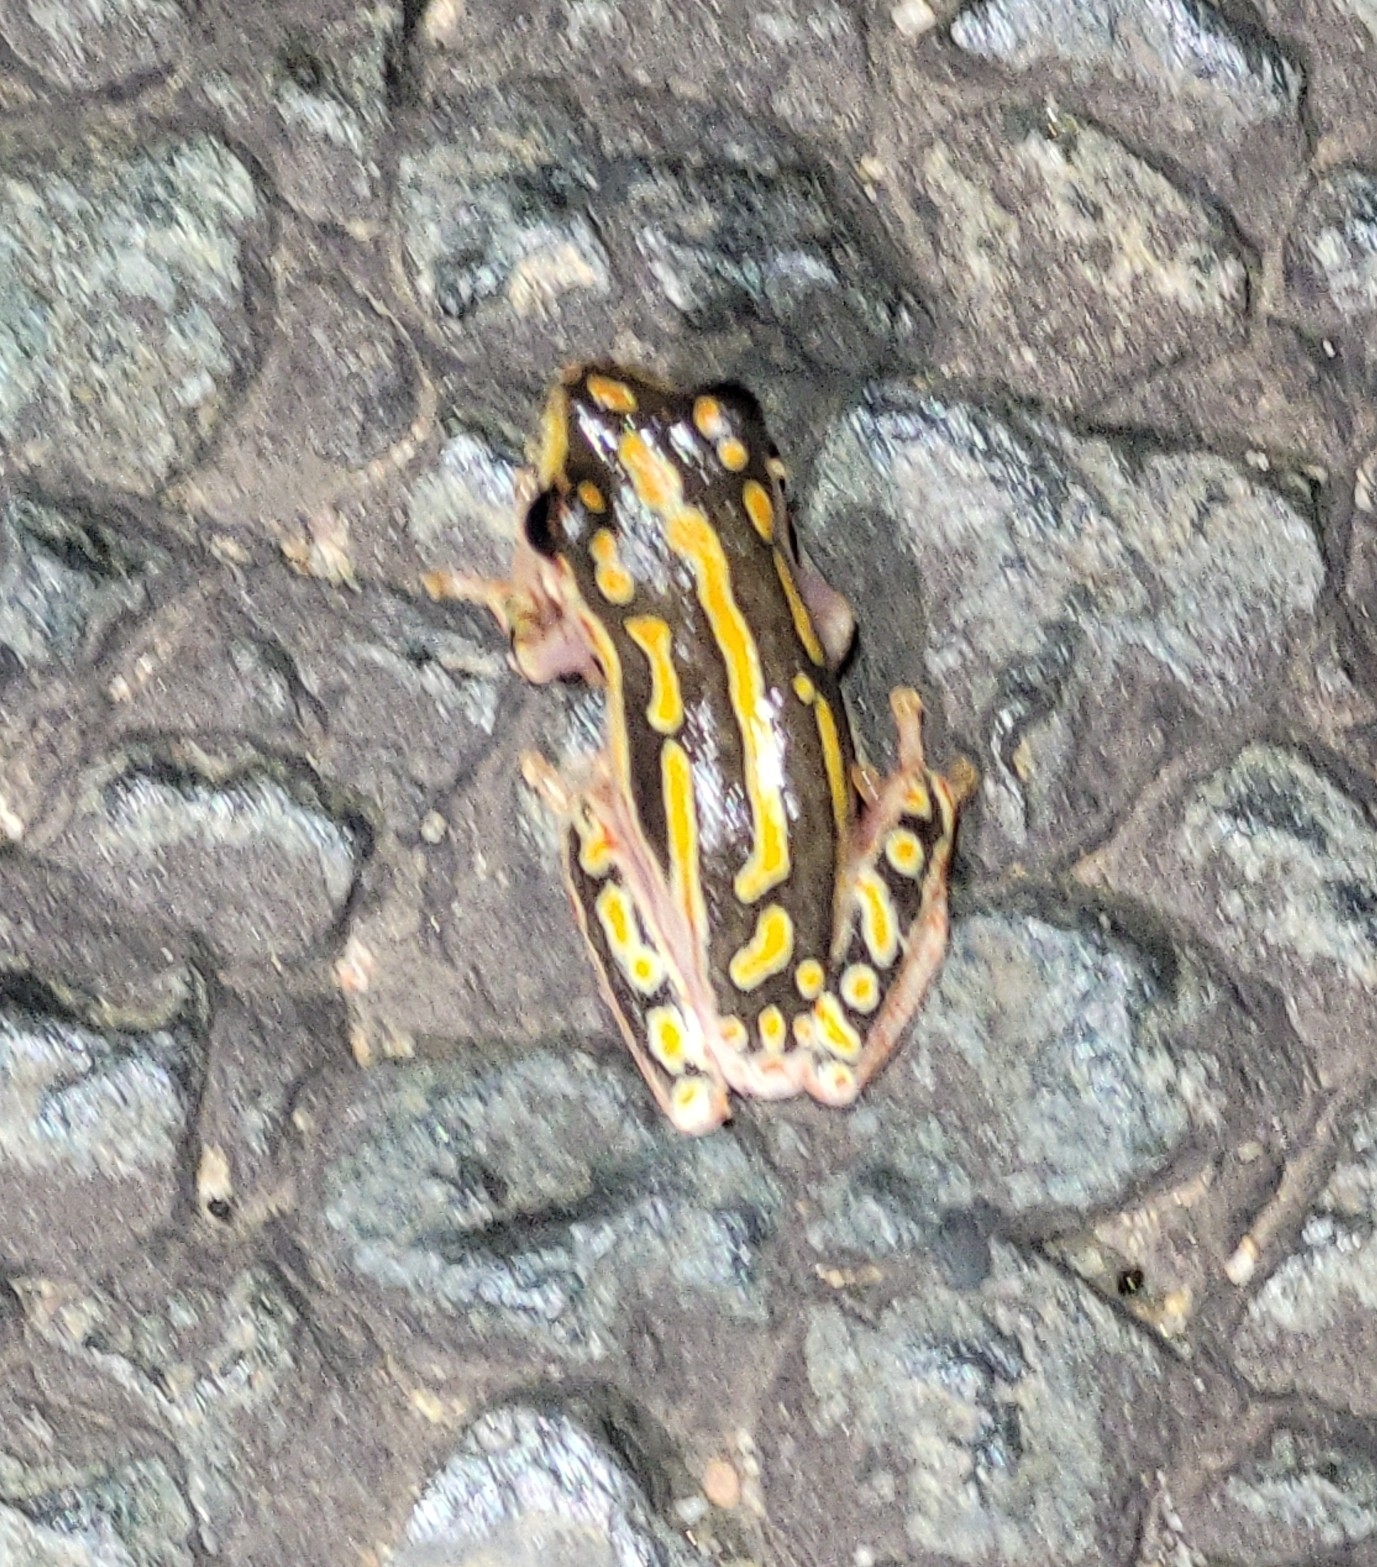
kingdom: Animalia
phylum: Chordata
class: Amphibia
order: Anura
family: Hyperoliidae
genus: Hyperolius
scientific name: Hyperolius marmoratus
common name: Painted reed frog
